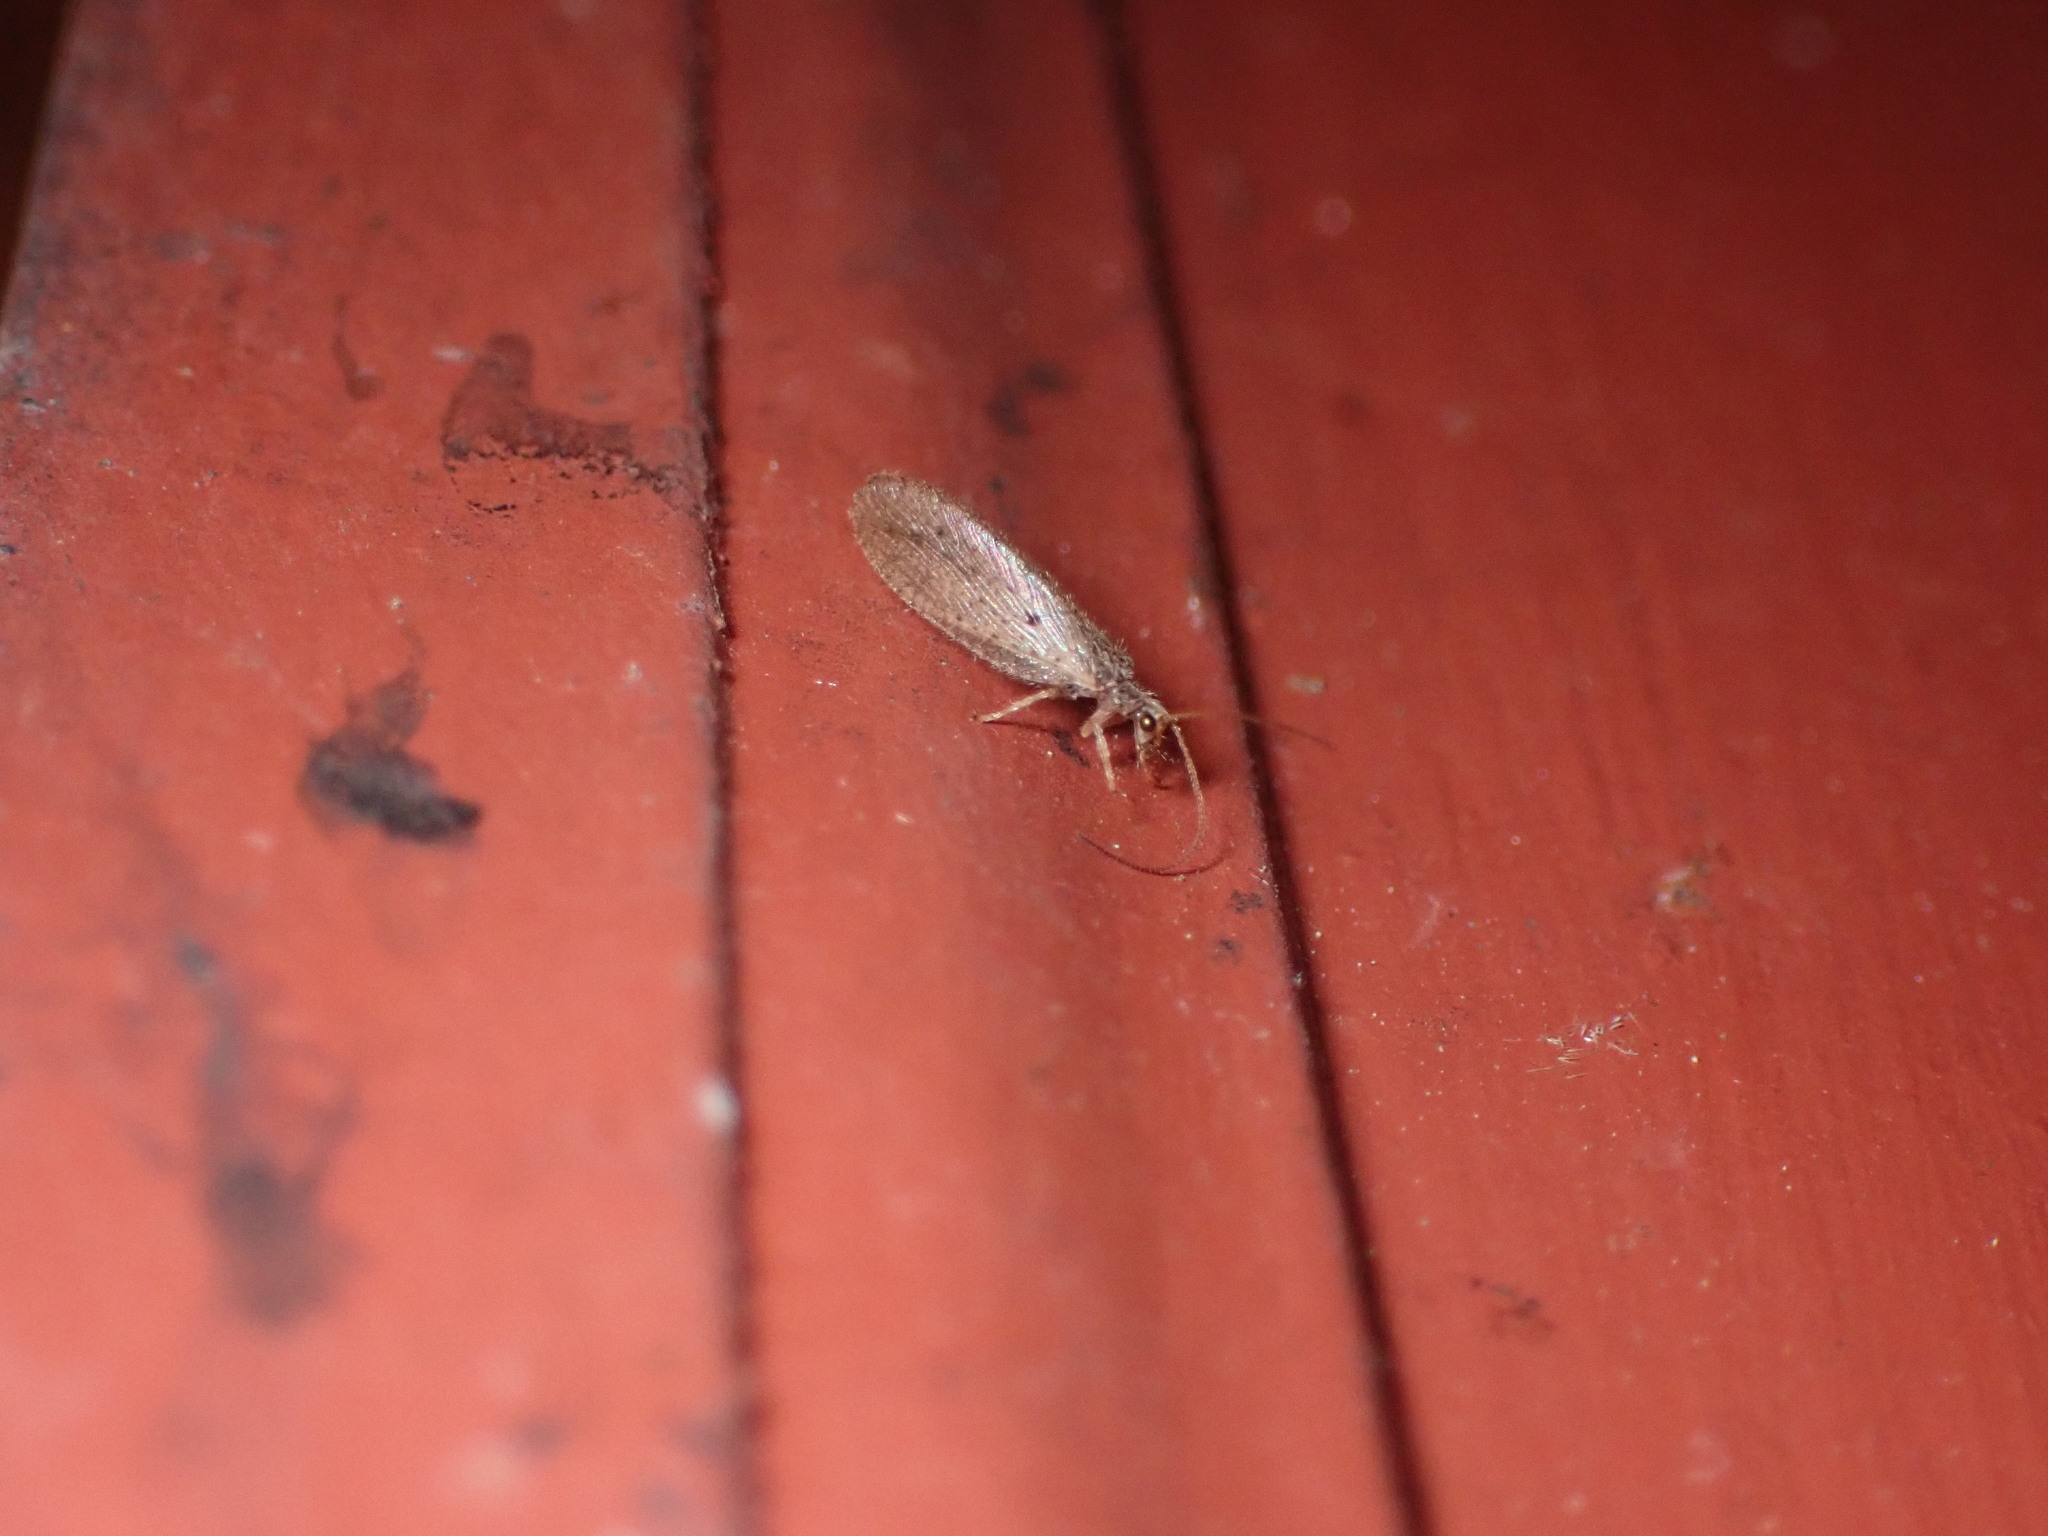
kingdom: Animalia
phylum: Arthropoda
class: Insecta
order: Neuroptera
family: Hemerobiidae
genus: Micromus
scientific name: Micromus subanticus
